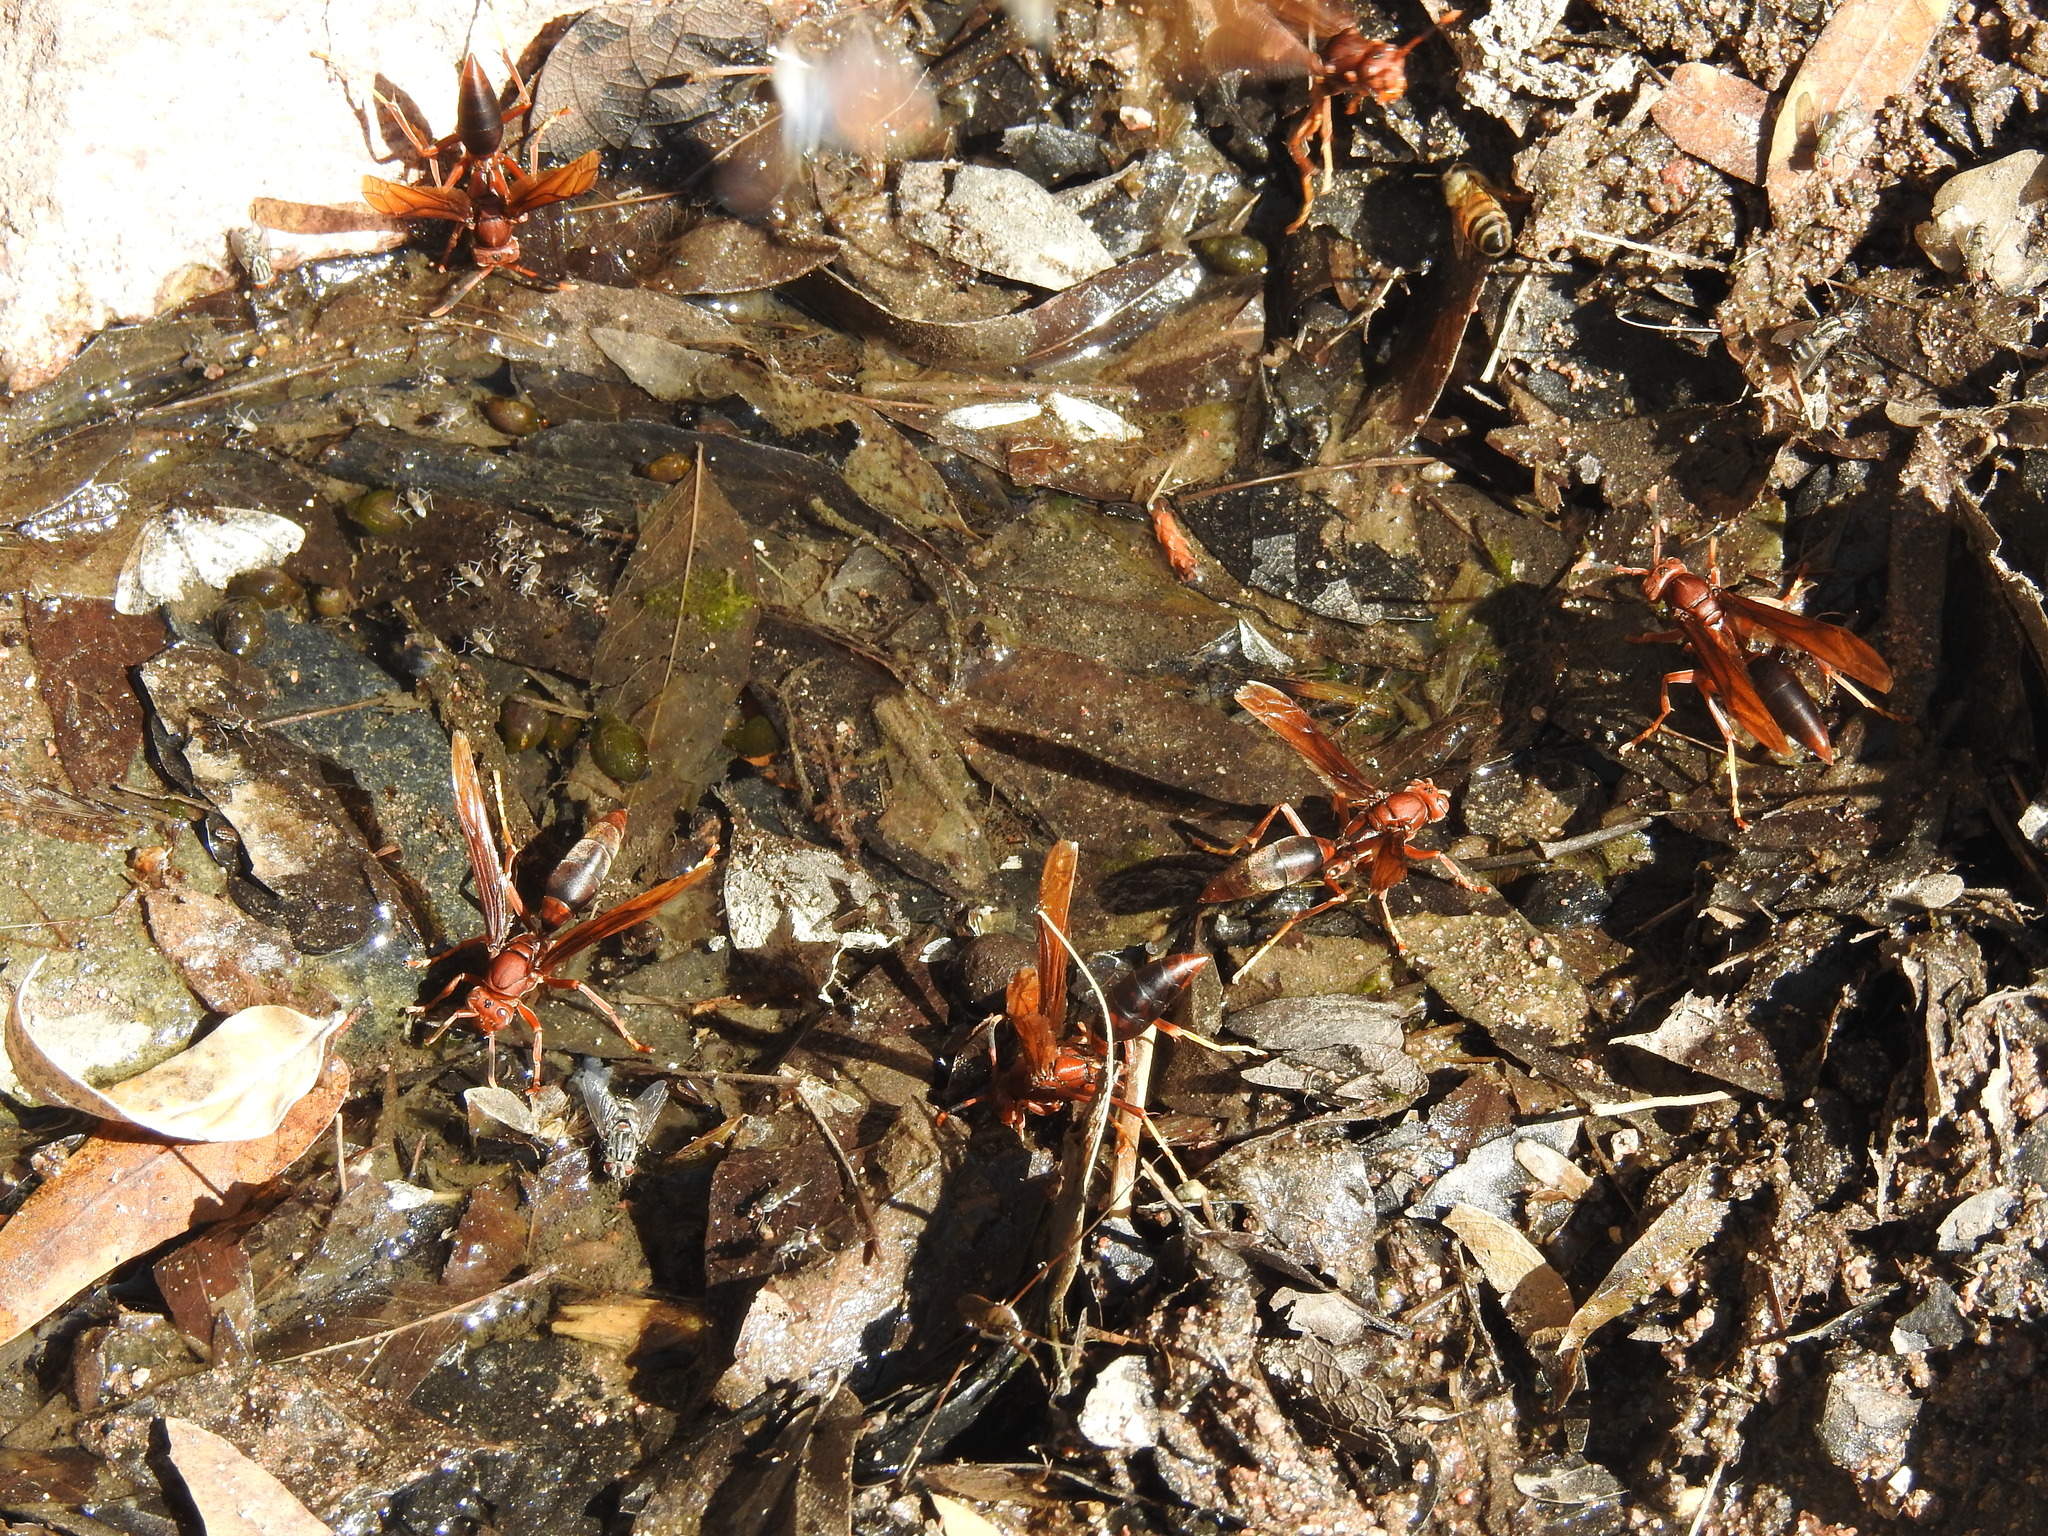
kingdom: Animalia
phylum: Arthropoda
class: Insecta
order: Hymenoptera
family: Eumenidae
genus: Polistes
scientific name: Polistes major
